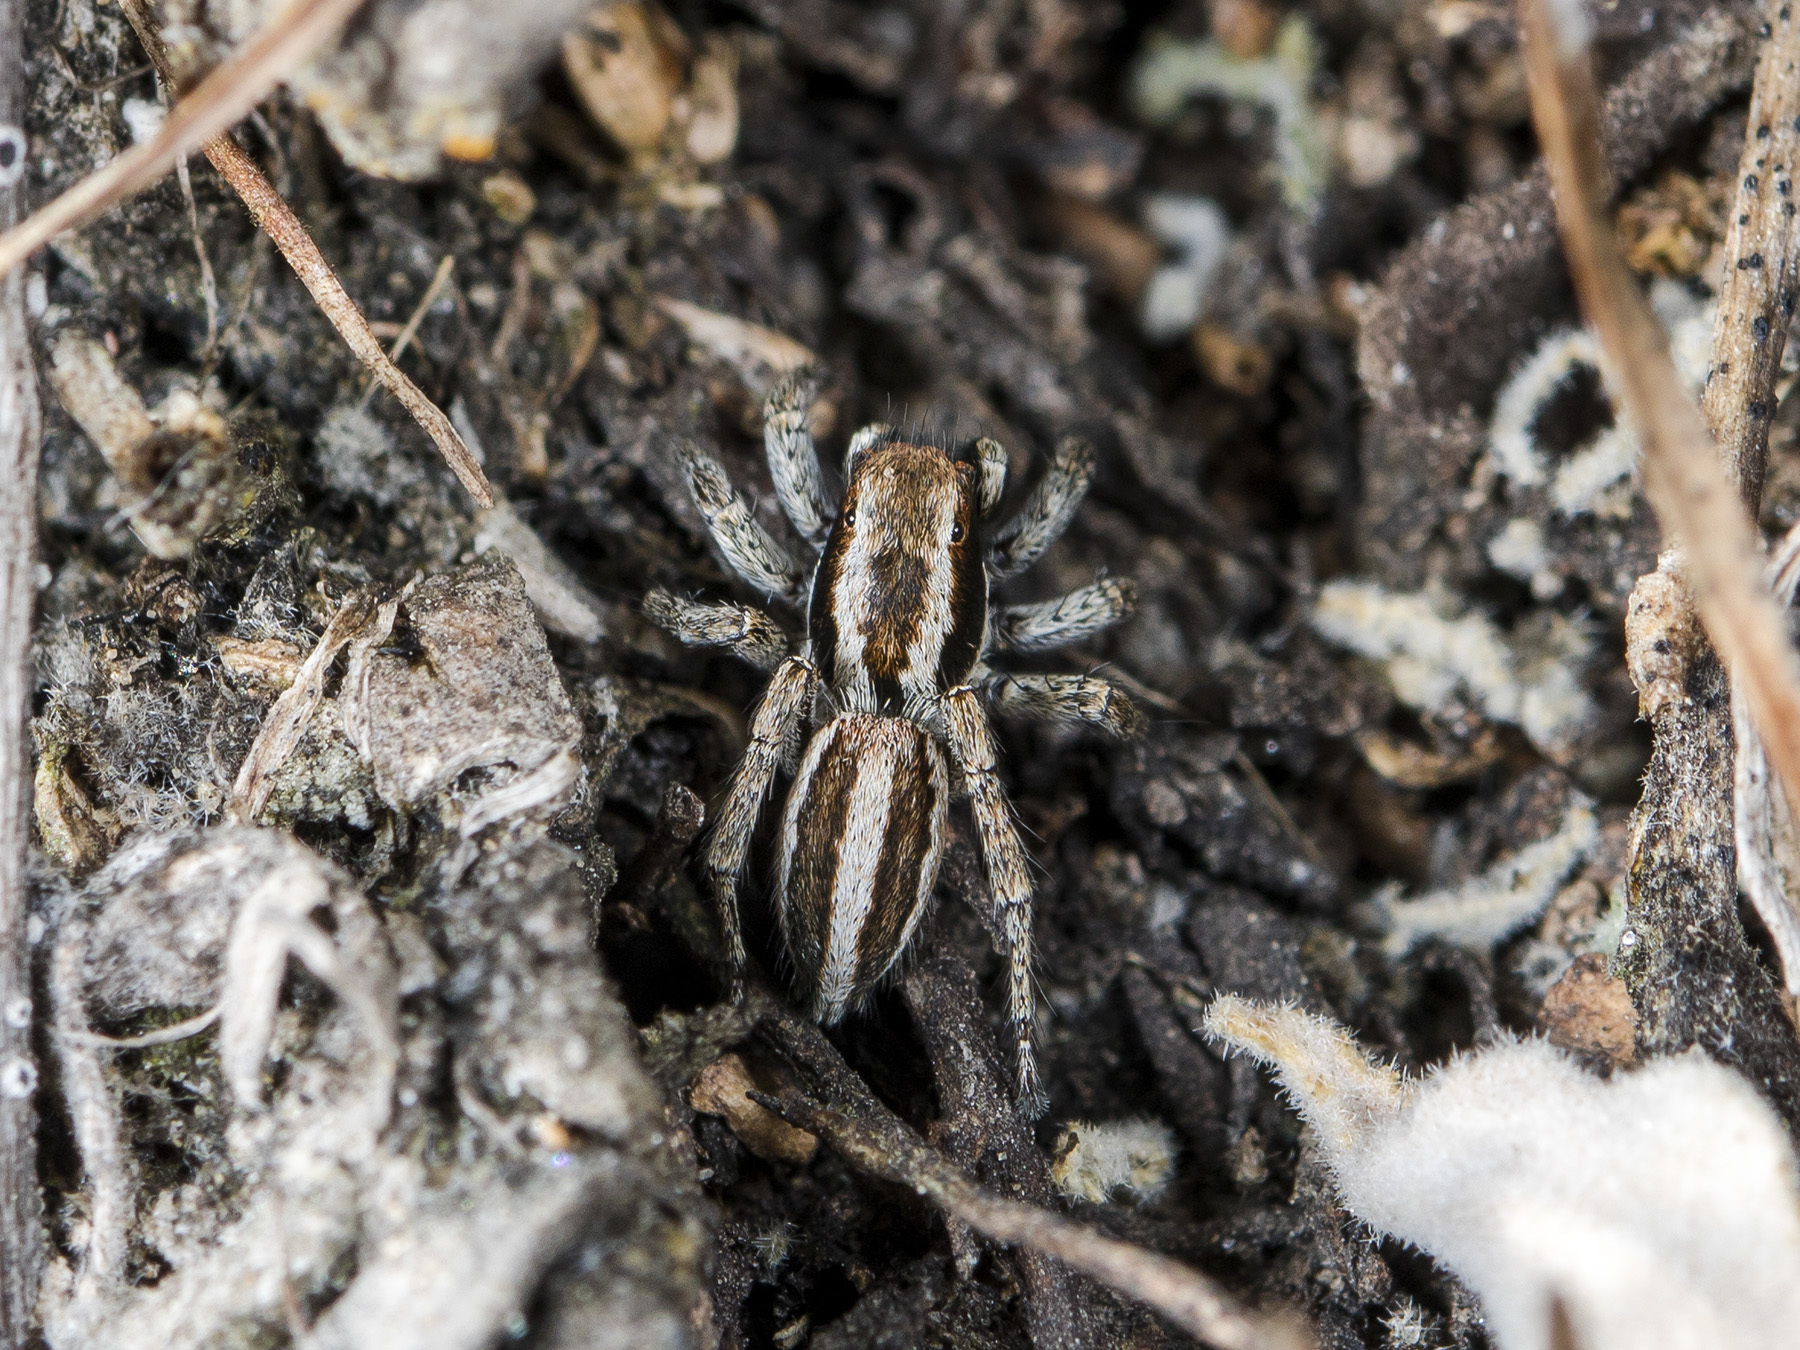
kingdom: Animalia
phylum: Arthropoda
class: Arachnida
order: Araneae
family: Salticidae
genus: Phlegra
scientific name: Phlegra andreevae
